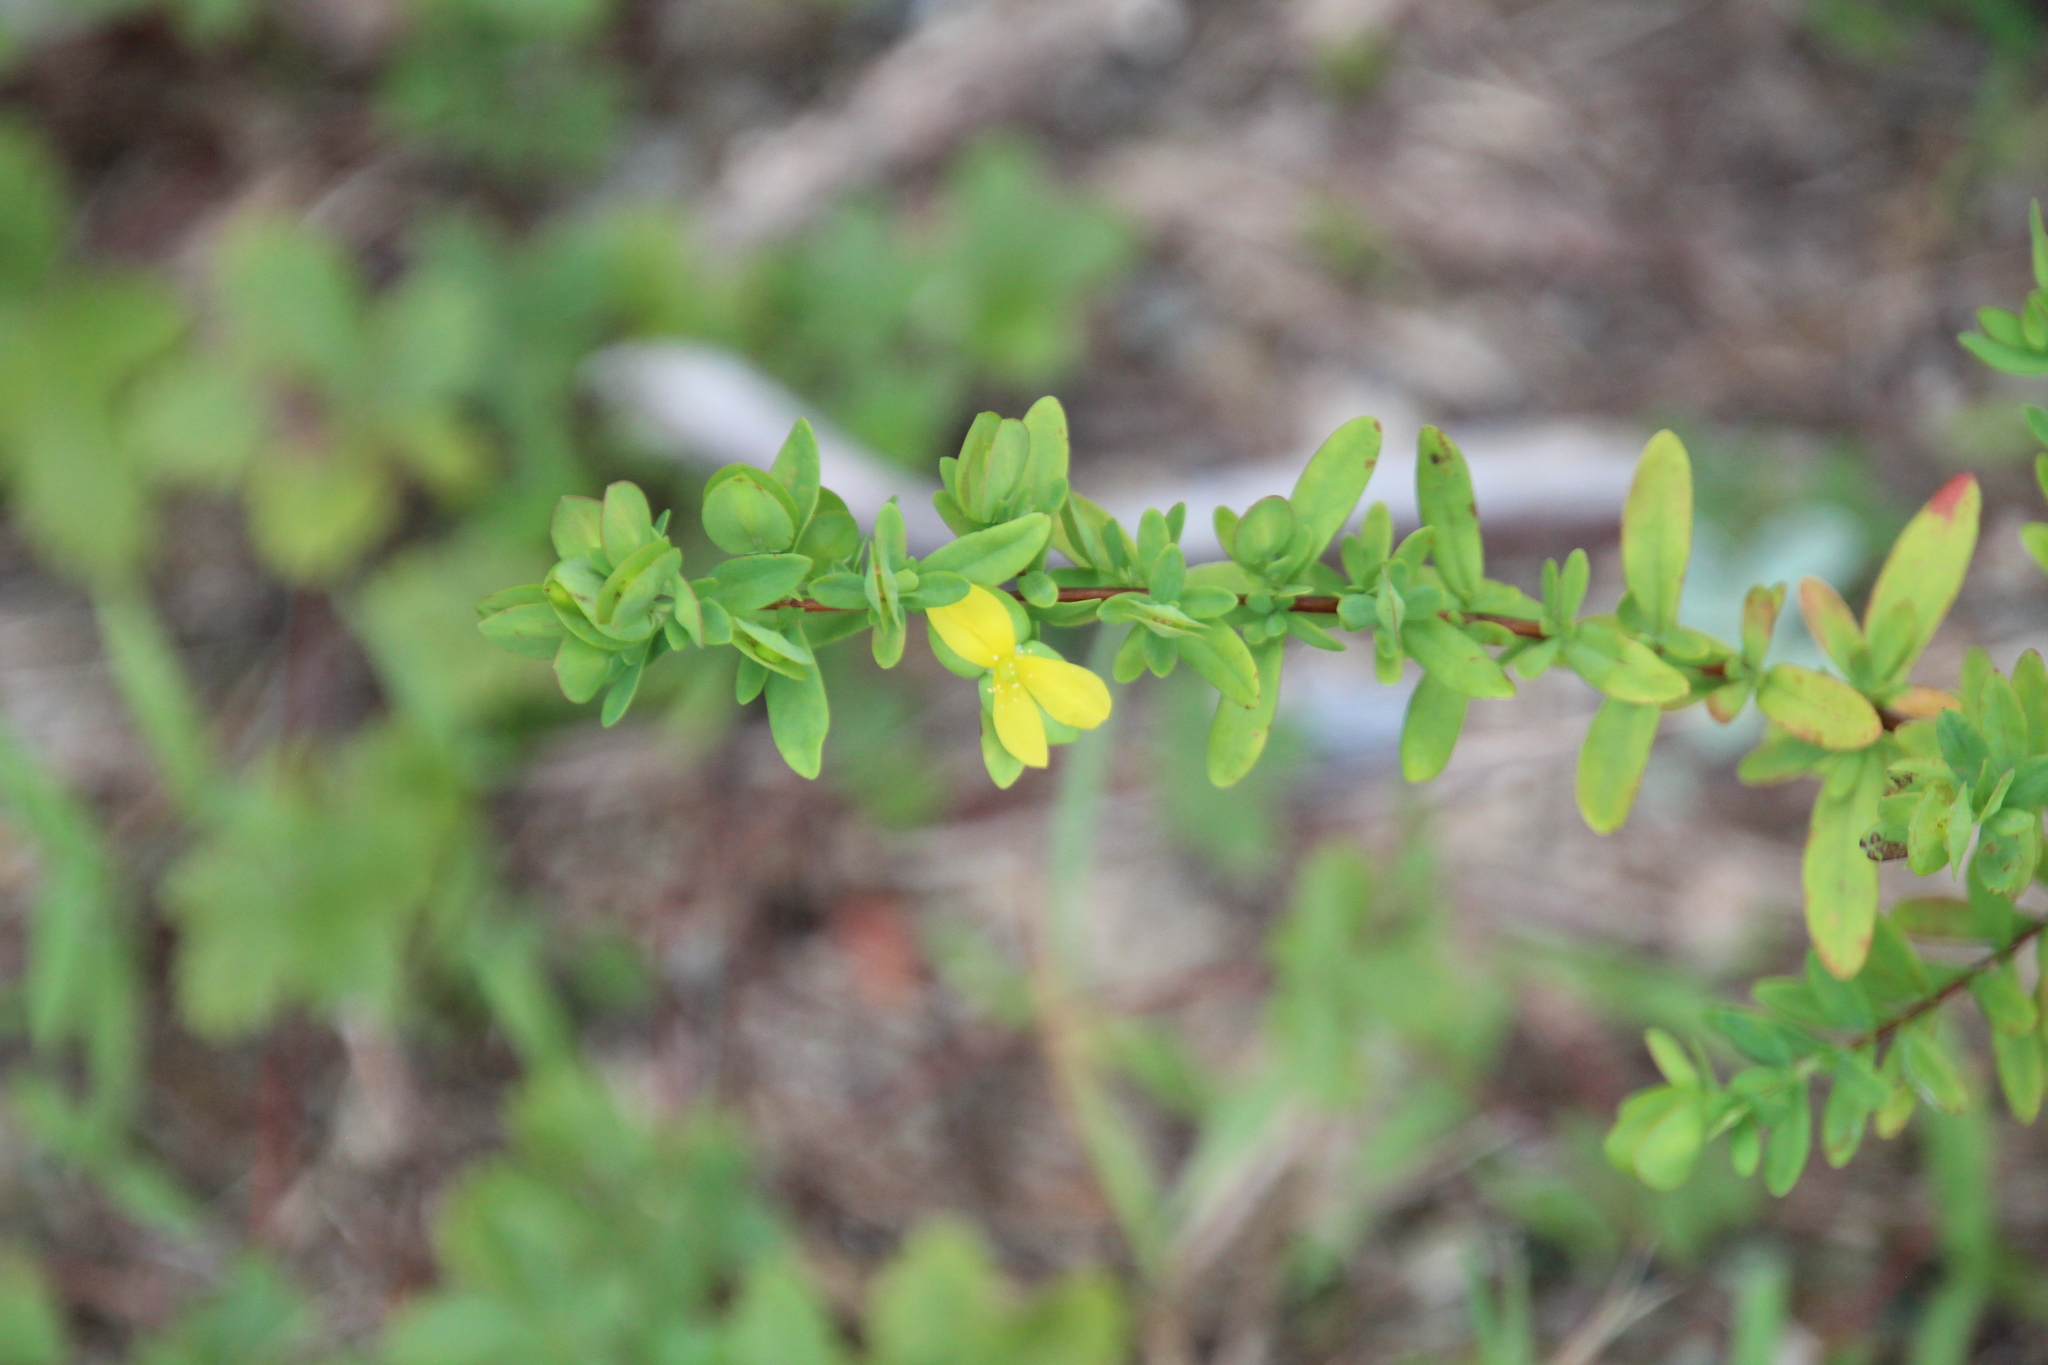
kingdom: Plantae
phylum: Tracheophyta
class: Magnoliopsida
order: Malpighiales
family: Hypericaceae
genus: Hypericum
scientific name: Hypericum hypericoides
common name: St. andrew's cross
